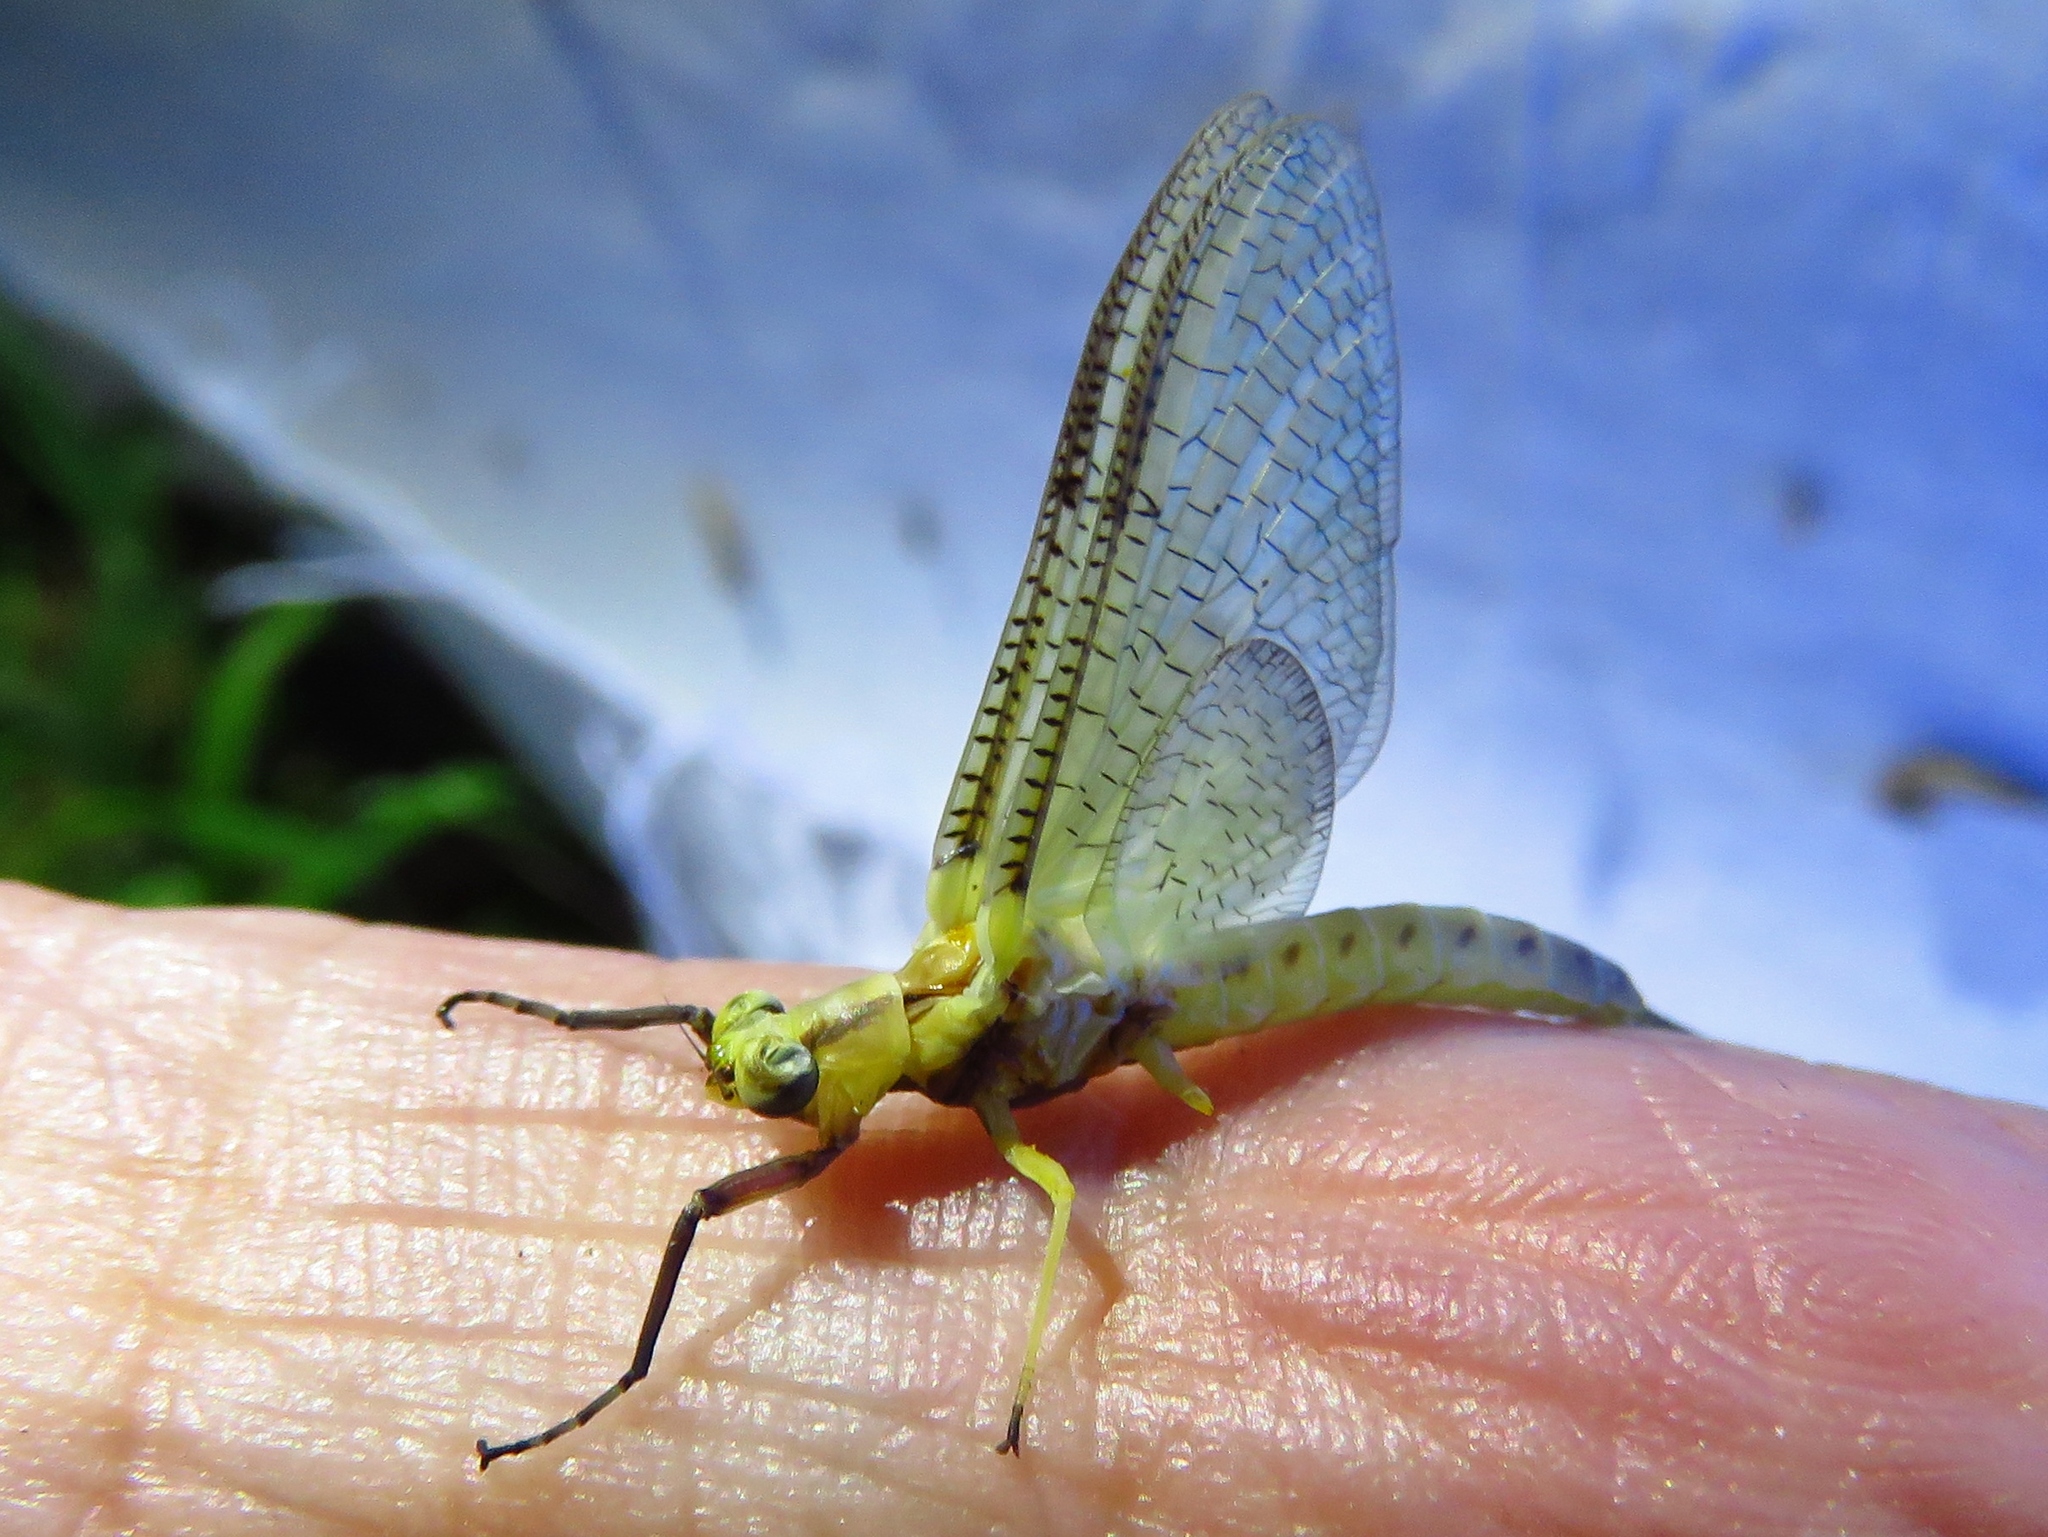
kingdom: Animalia
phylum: Arthropoda
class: Insecta
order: Ephemeroptera
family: Ephemeridae
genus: Hexagenia
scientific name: Hexagenia limbata
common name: Giant mayfly
